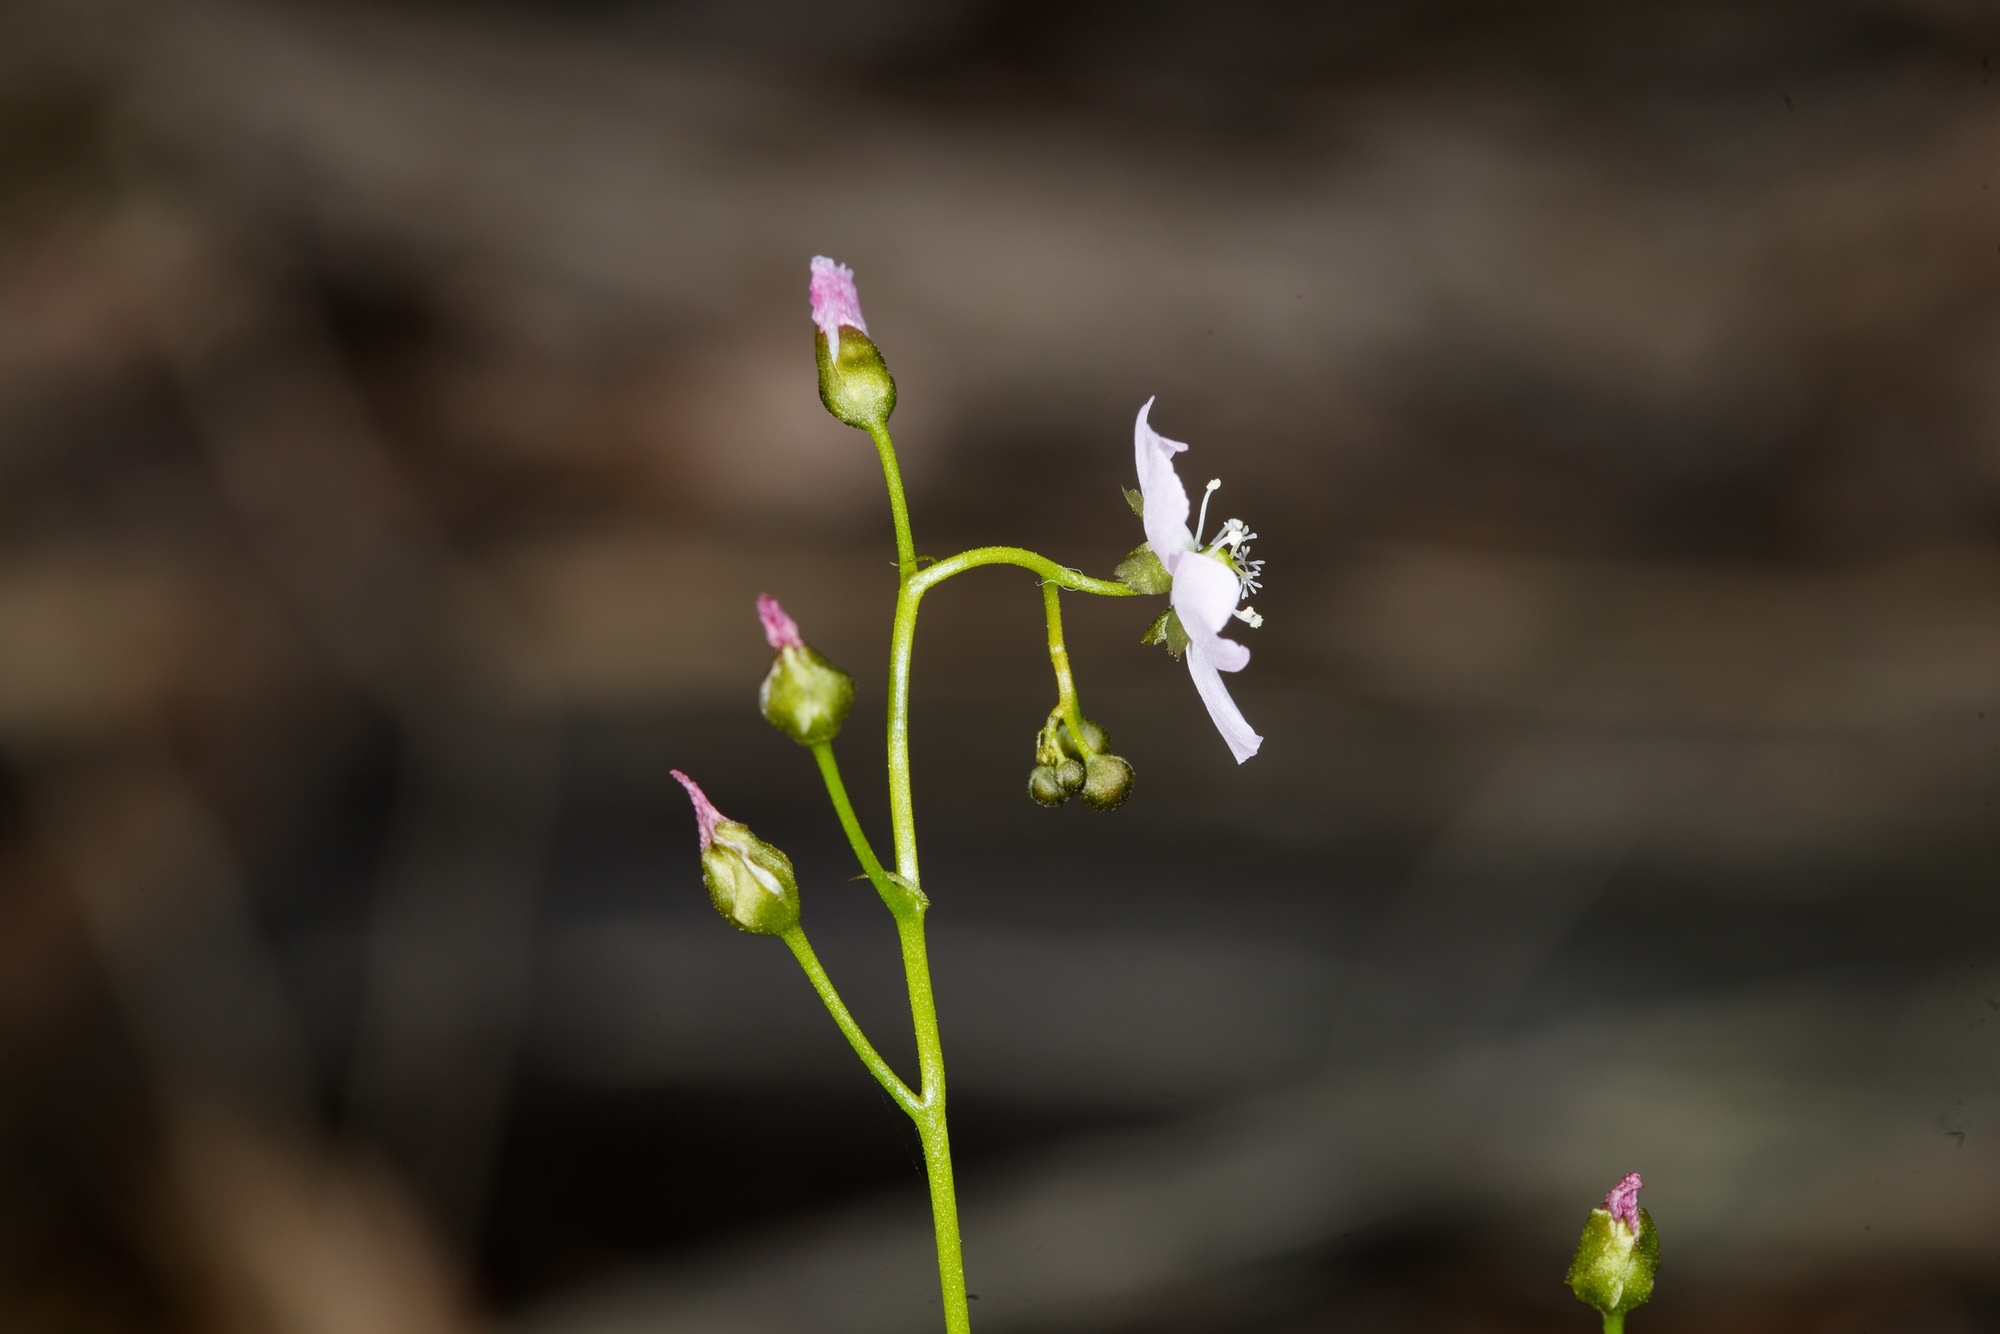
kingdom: Plantae
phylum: Tracheophyta
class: Magnoliopsida
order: Caryophyllales
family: Droseraceae
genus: Drosera
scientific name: Drosera peltata
